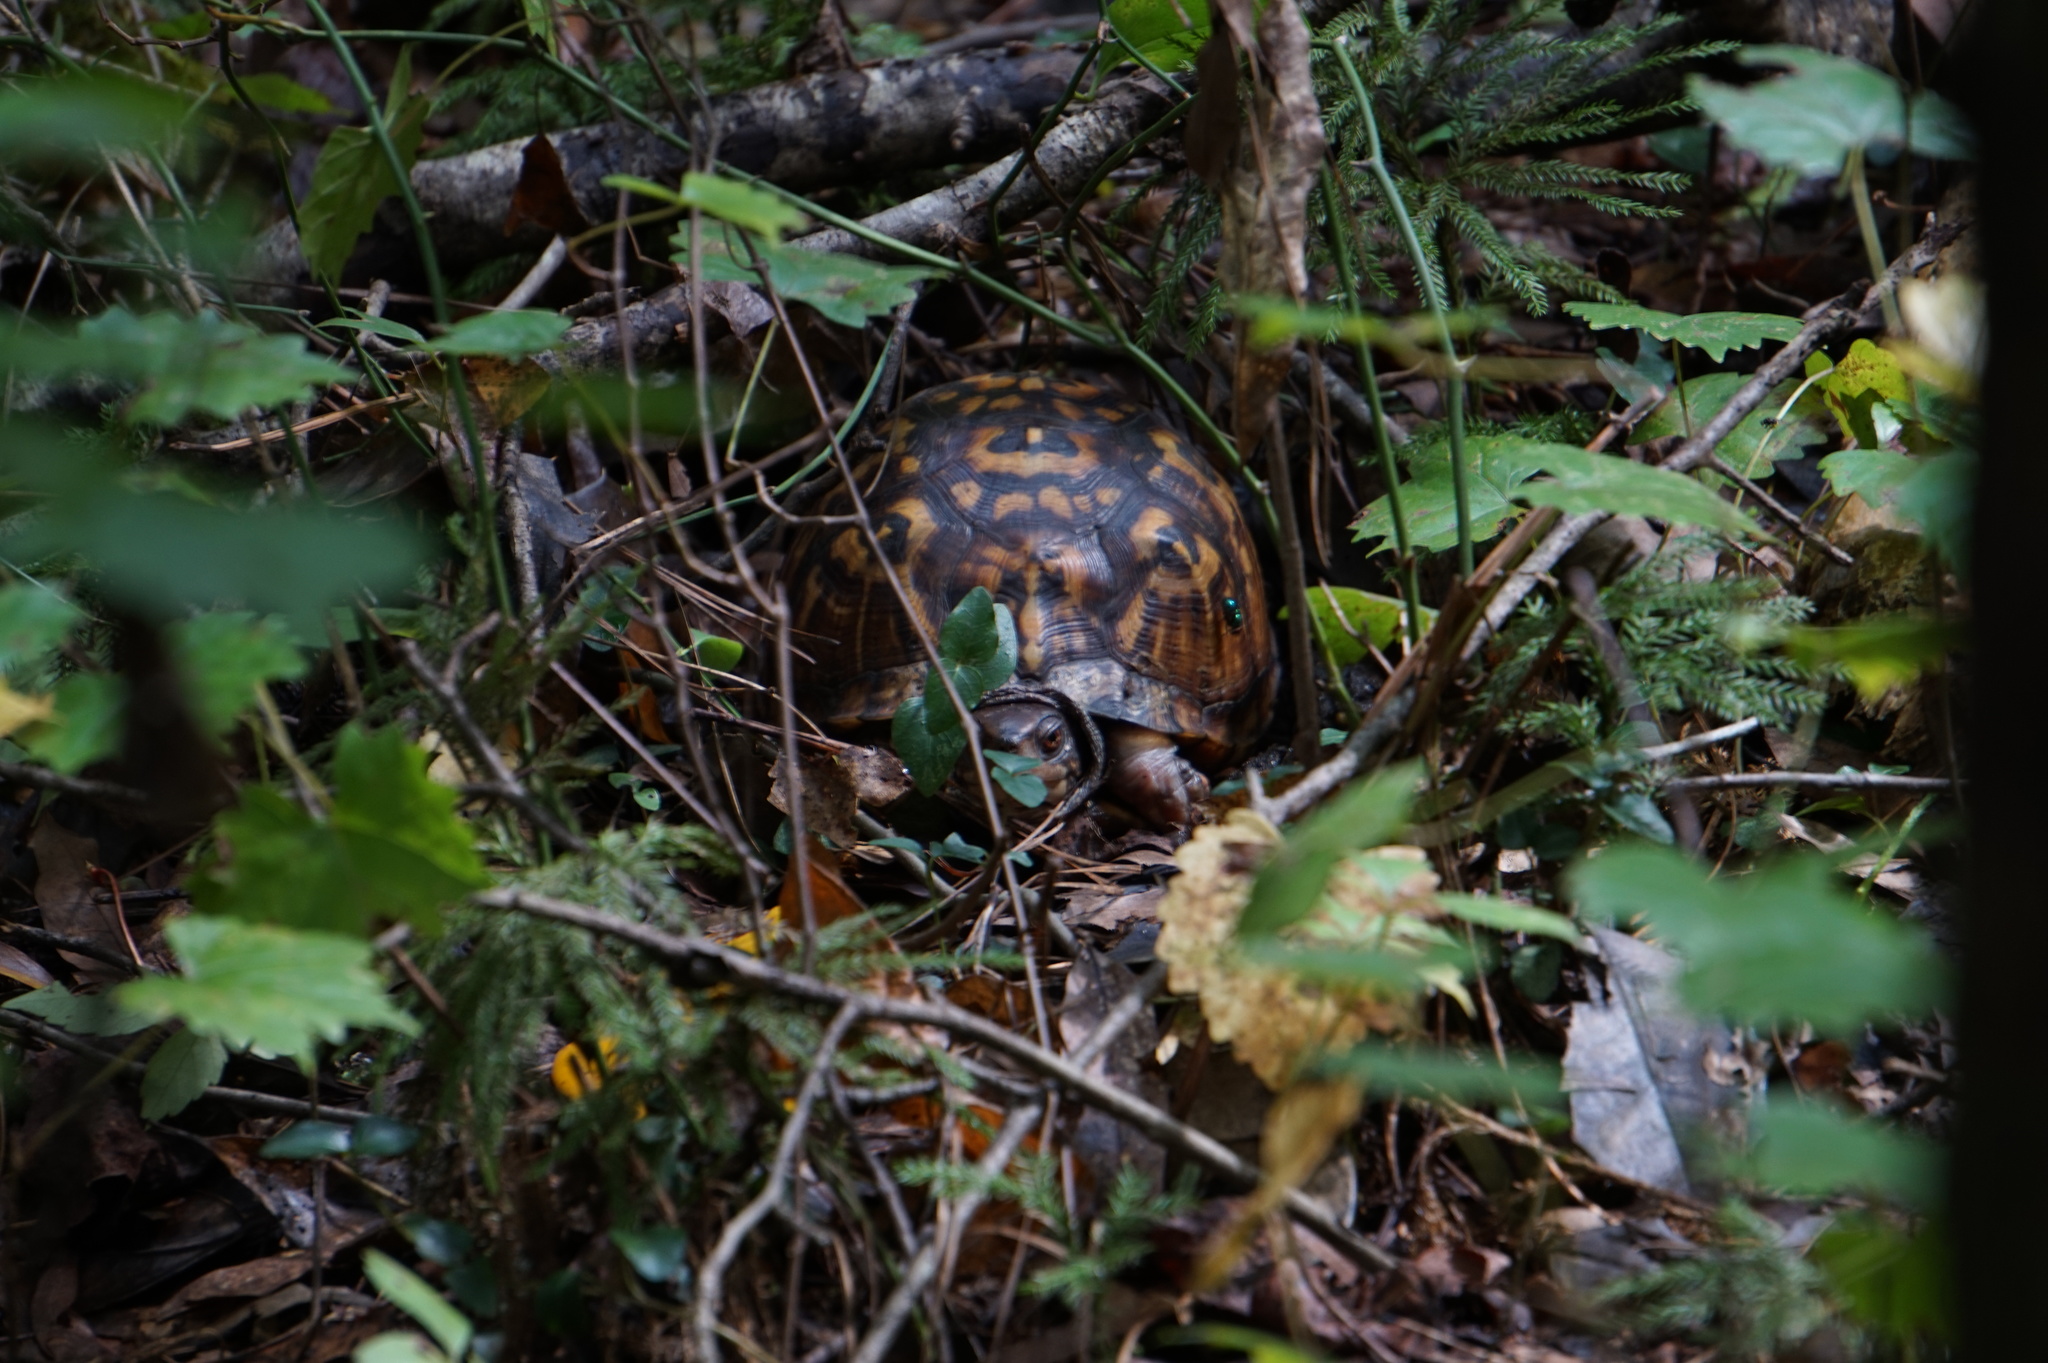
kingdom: Animalia
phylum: Chordata
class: Testudines
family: Emydidae
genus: Terrapene
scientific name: Terrapene carolina
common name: Common box turtle
